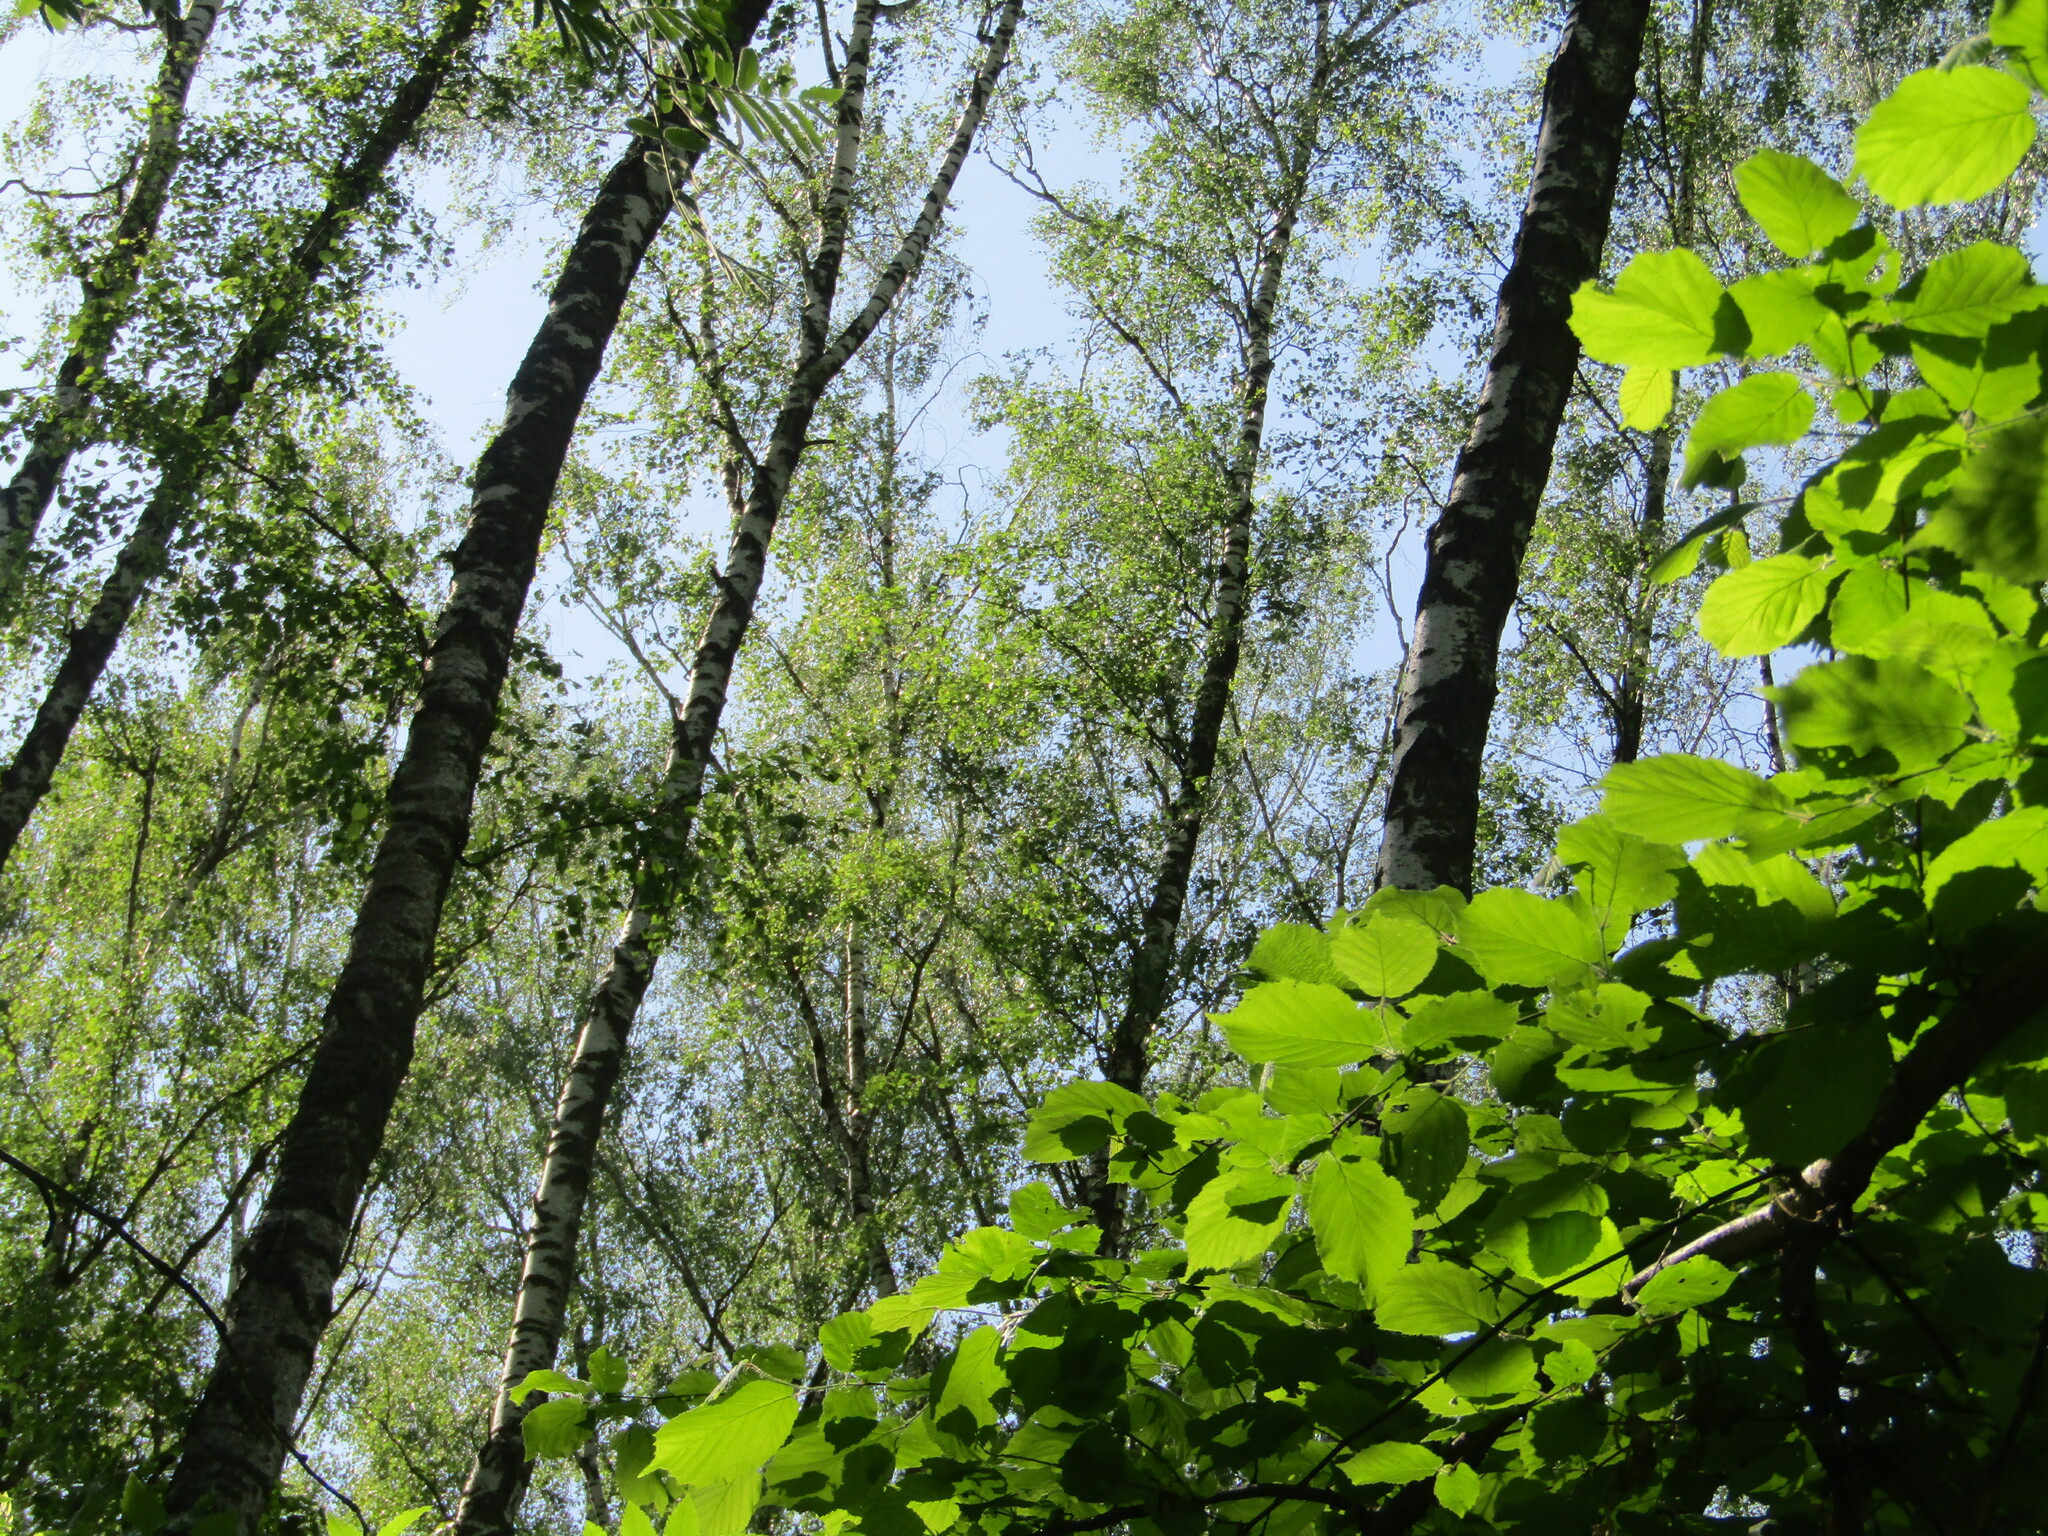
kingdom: Plantae
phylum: Tracheophyta
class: Magnoliopsida
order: Fagales
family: Betulaceae
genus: Betula
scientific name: Betula pendula
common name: Silver birch
